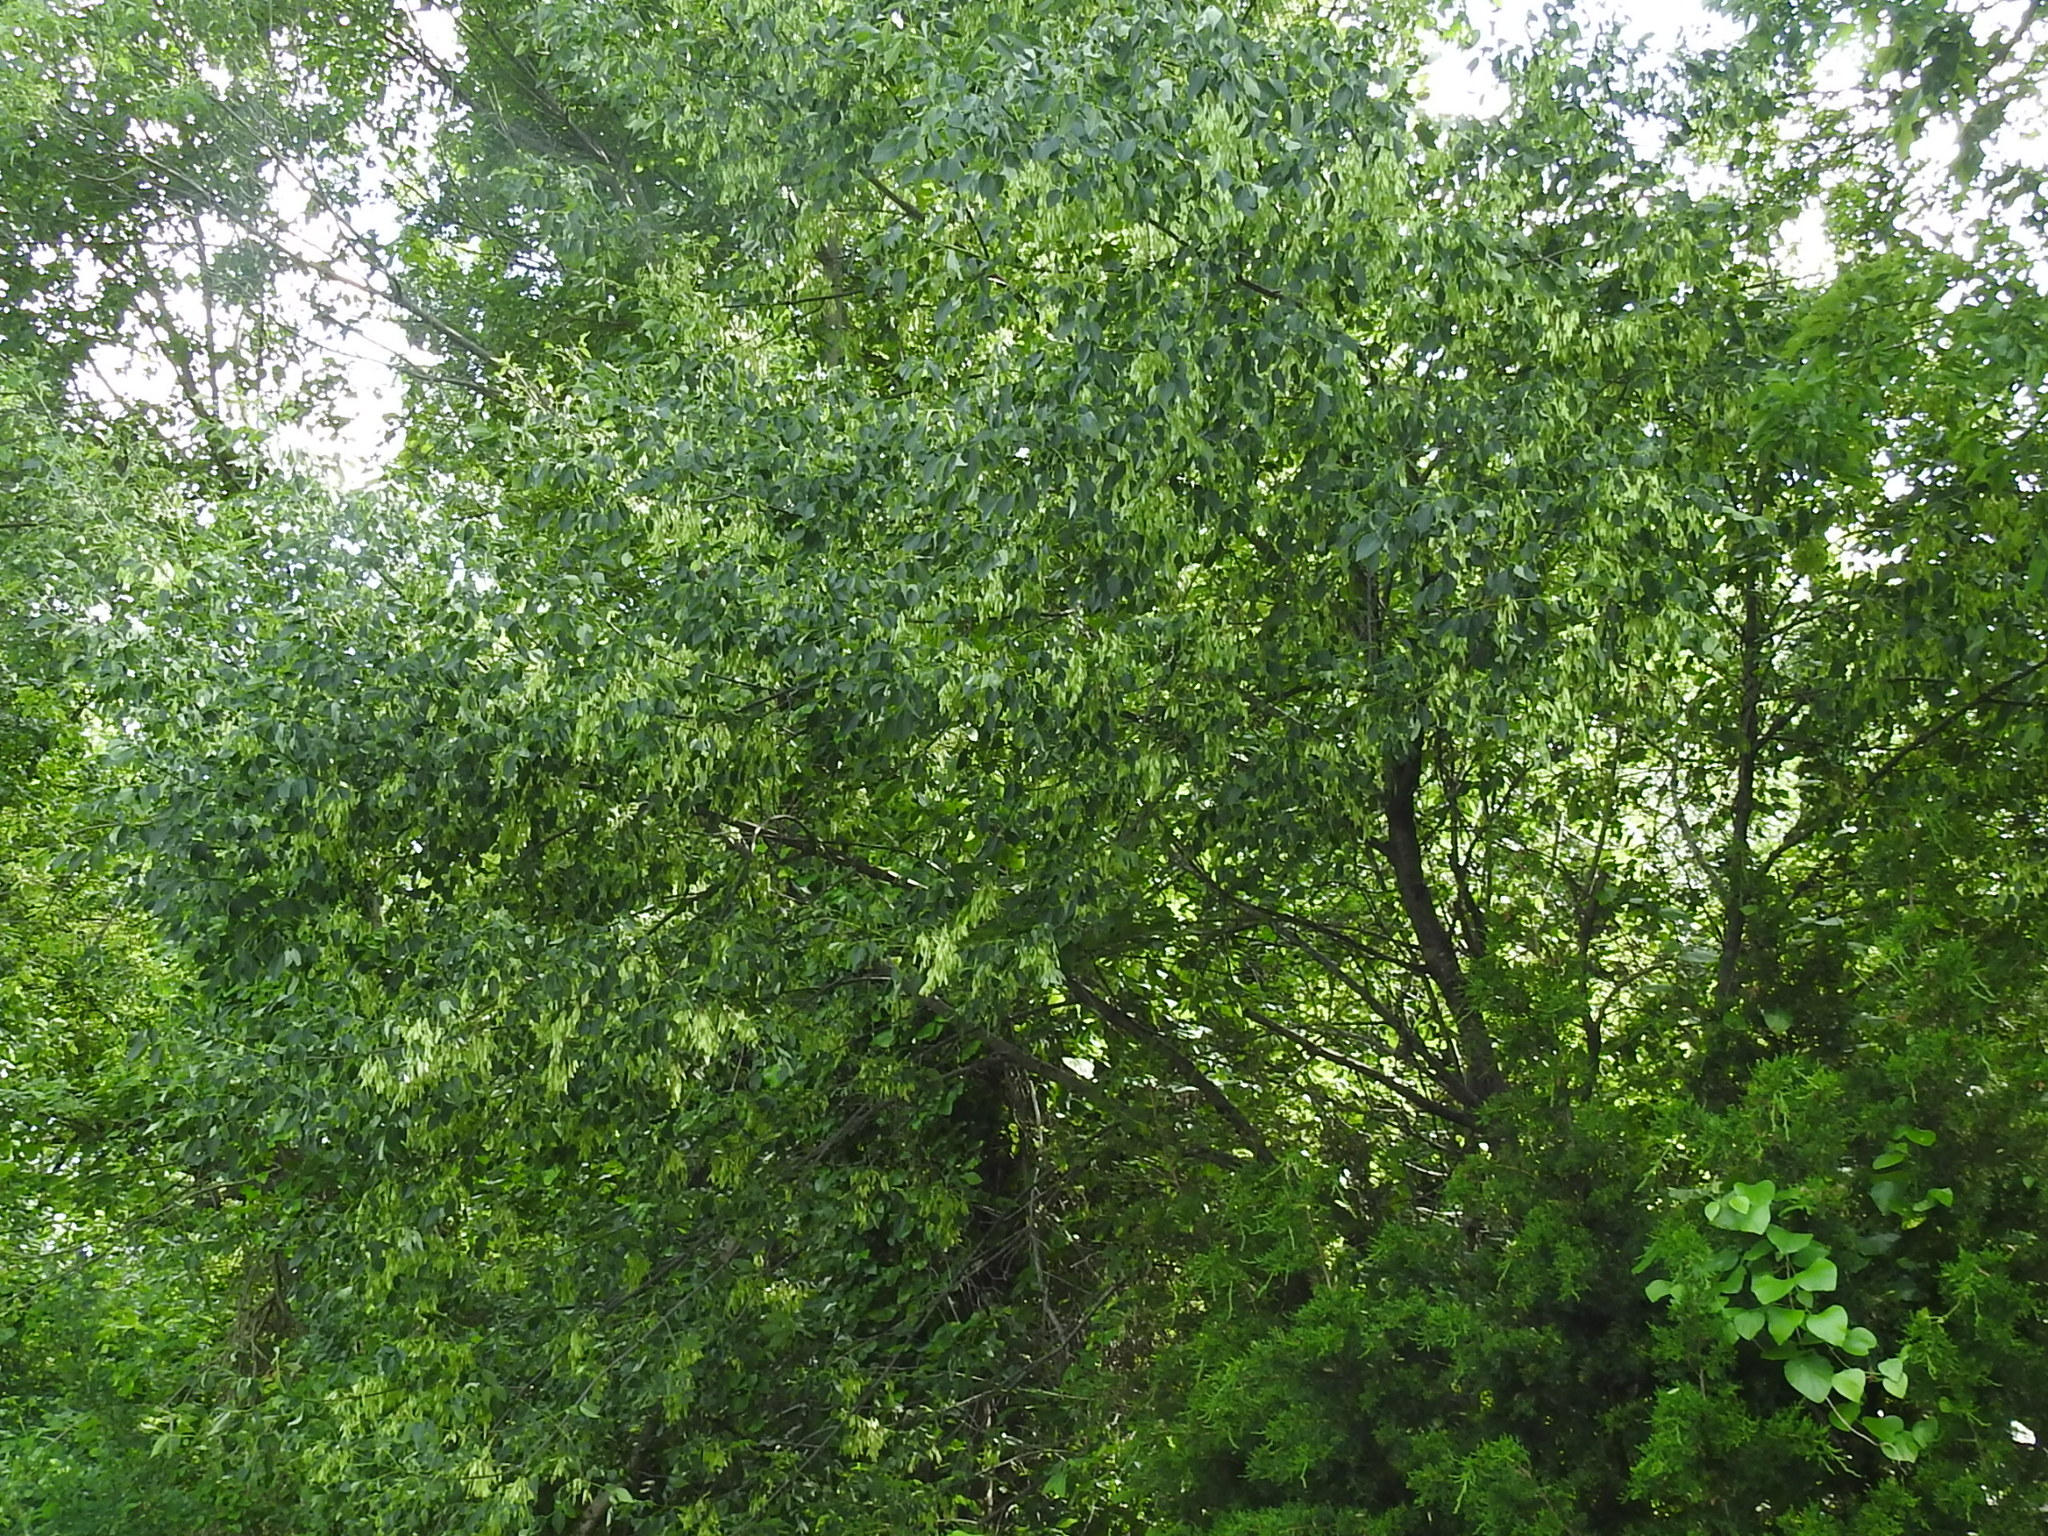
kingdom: Plantae
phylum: Tracheophyta
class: Magnoliopsida
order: Lamiales
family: Oleaceae
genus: Fraxinus
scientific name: Fraxinus pennsylvanica
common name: Green ash
